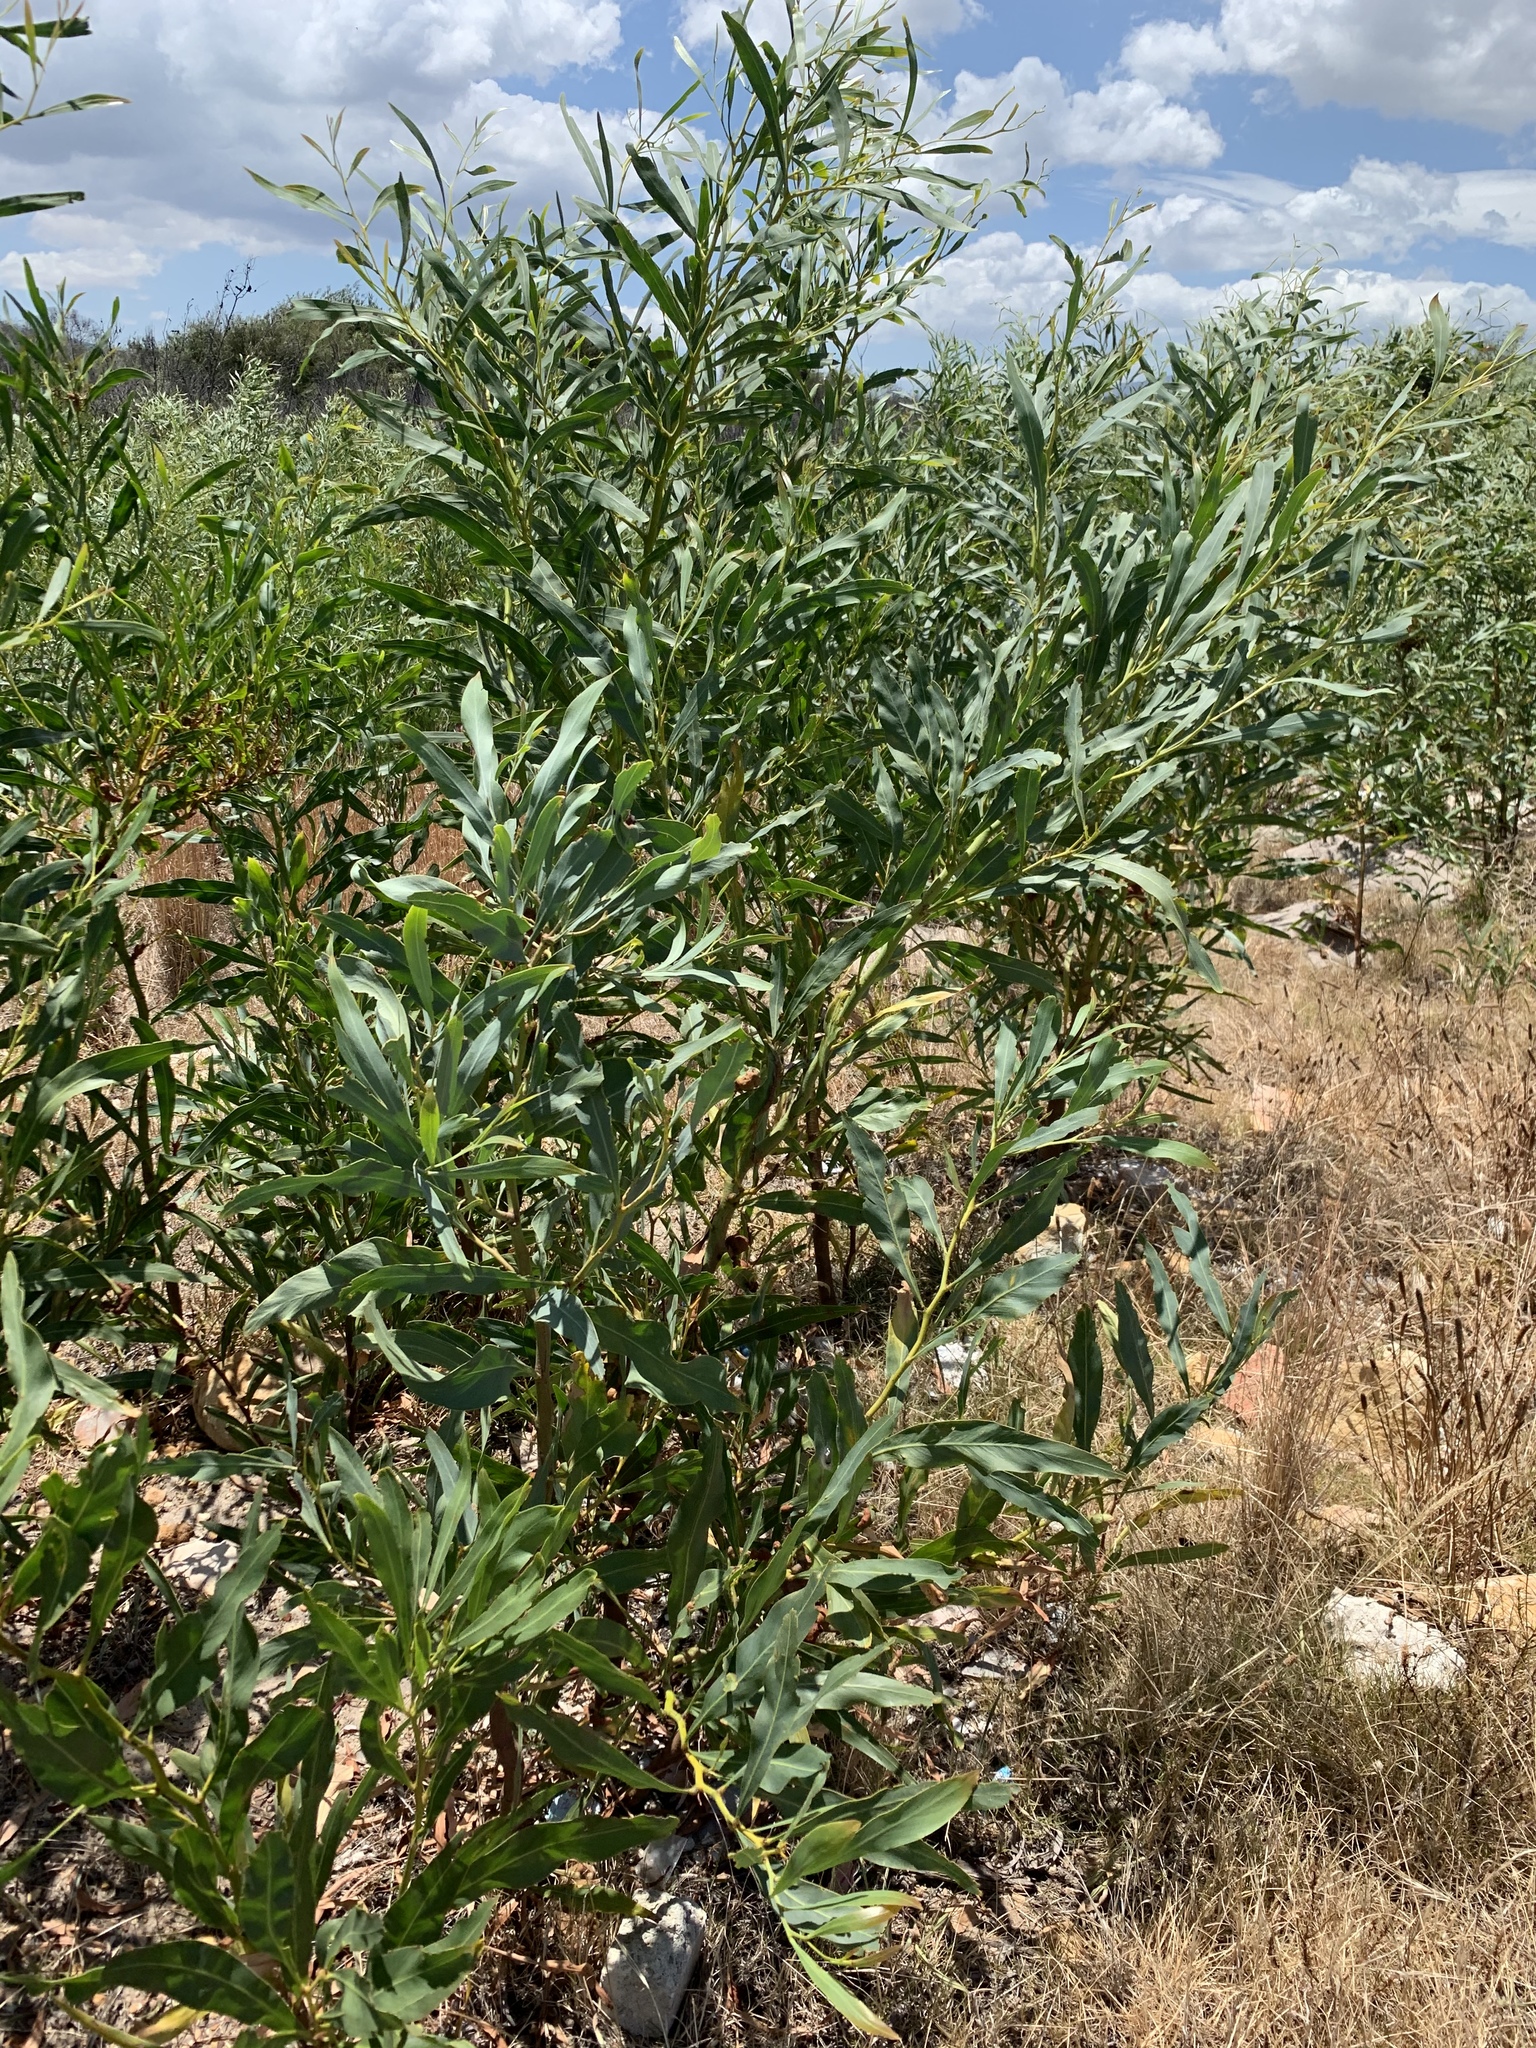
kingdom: Plantae
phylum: Tracheophyta
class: Magnoliopsida
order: Fabales
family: Fabaceae
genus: Acacia
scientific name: Acacia saligna
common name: Orange wattle
